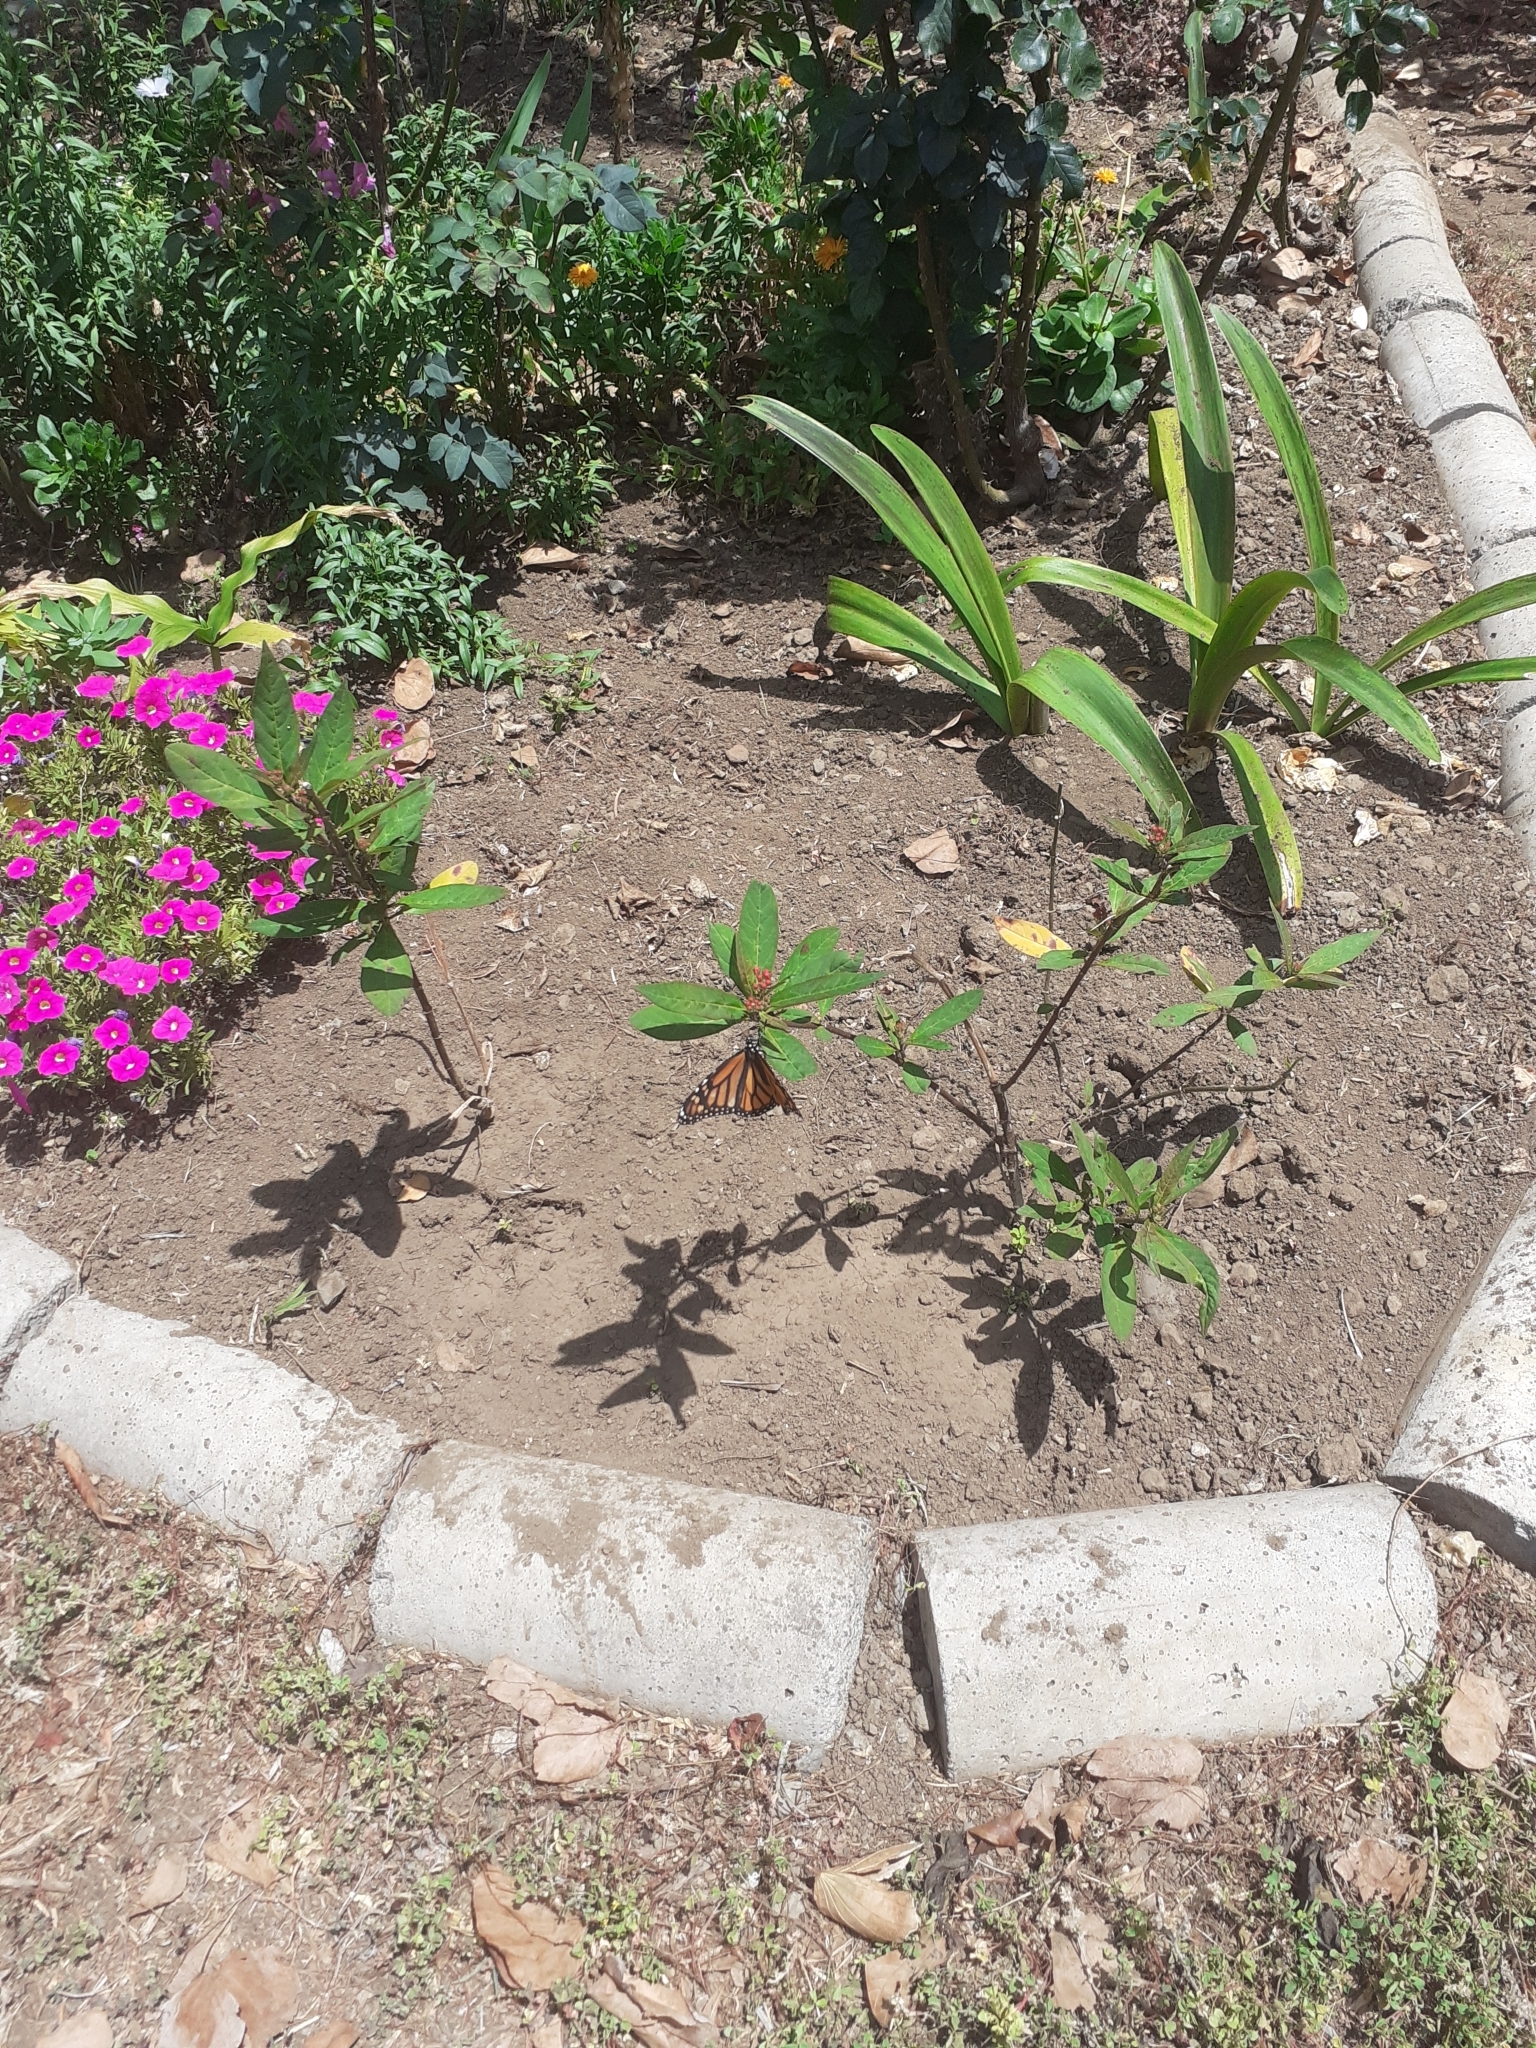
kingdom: Animalia
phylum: Arthropoda
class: Insecta
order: Lepidoptera
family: Nymphalidae
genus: Danaus
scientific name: Danaus plexippus
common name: Monarch
